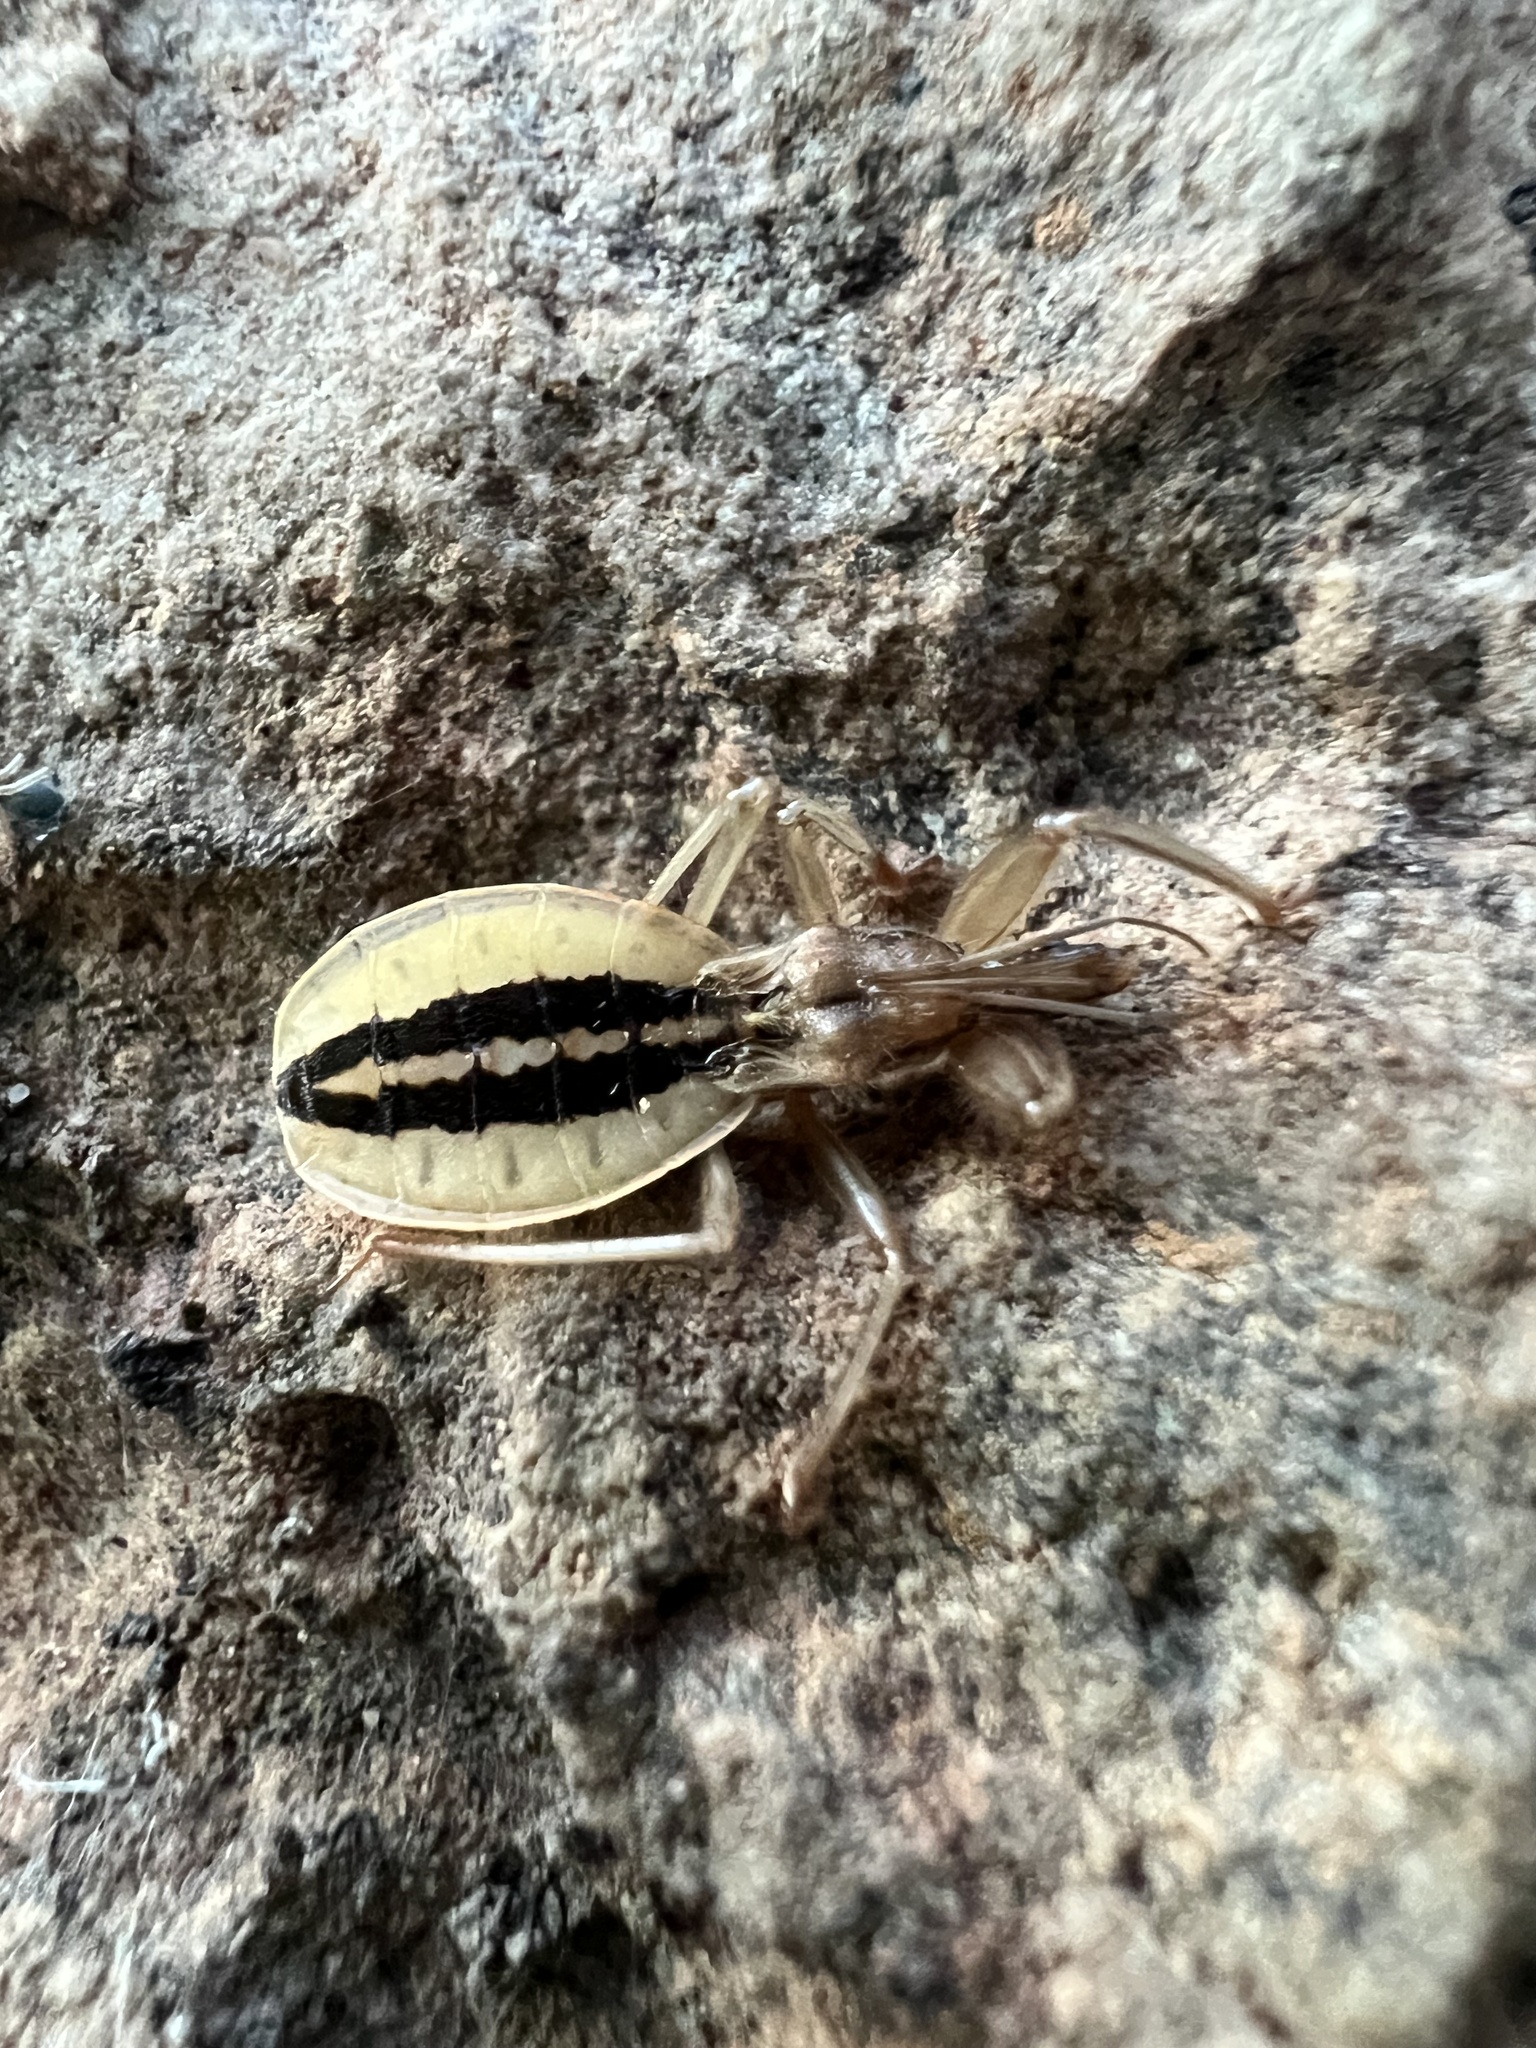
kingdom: Animalia
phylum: Arthropoda
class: Insecta
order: Hemiptera
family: Reduviidae
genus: Fitchia
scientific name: Fitchia aptera
